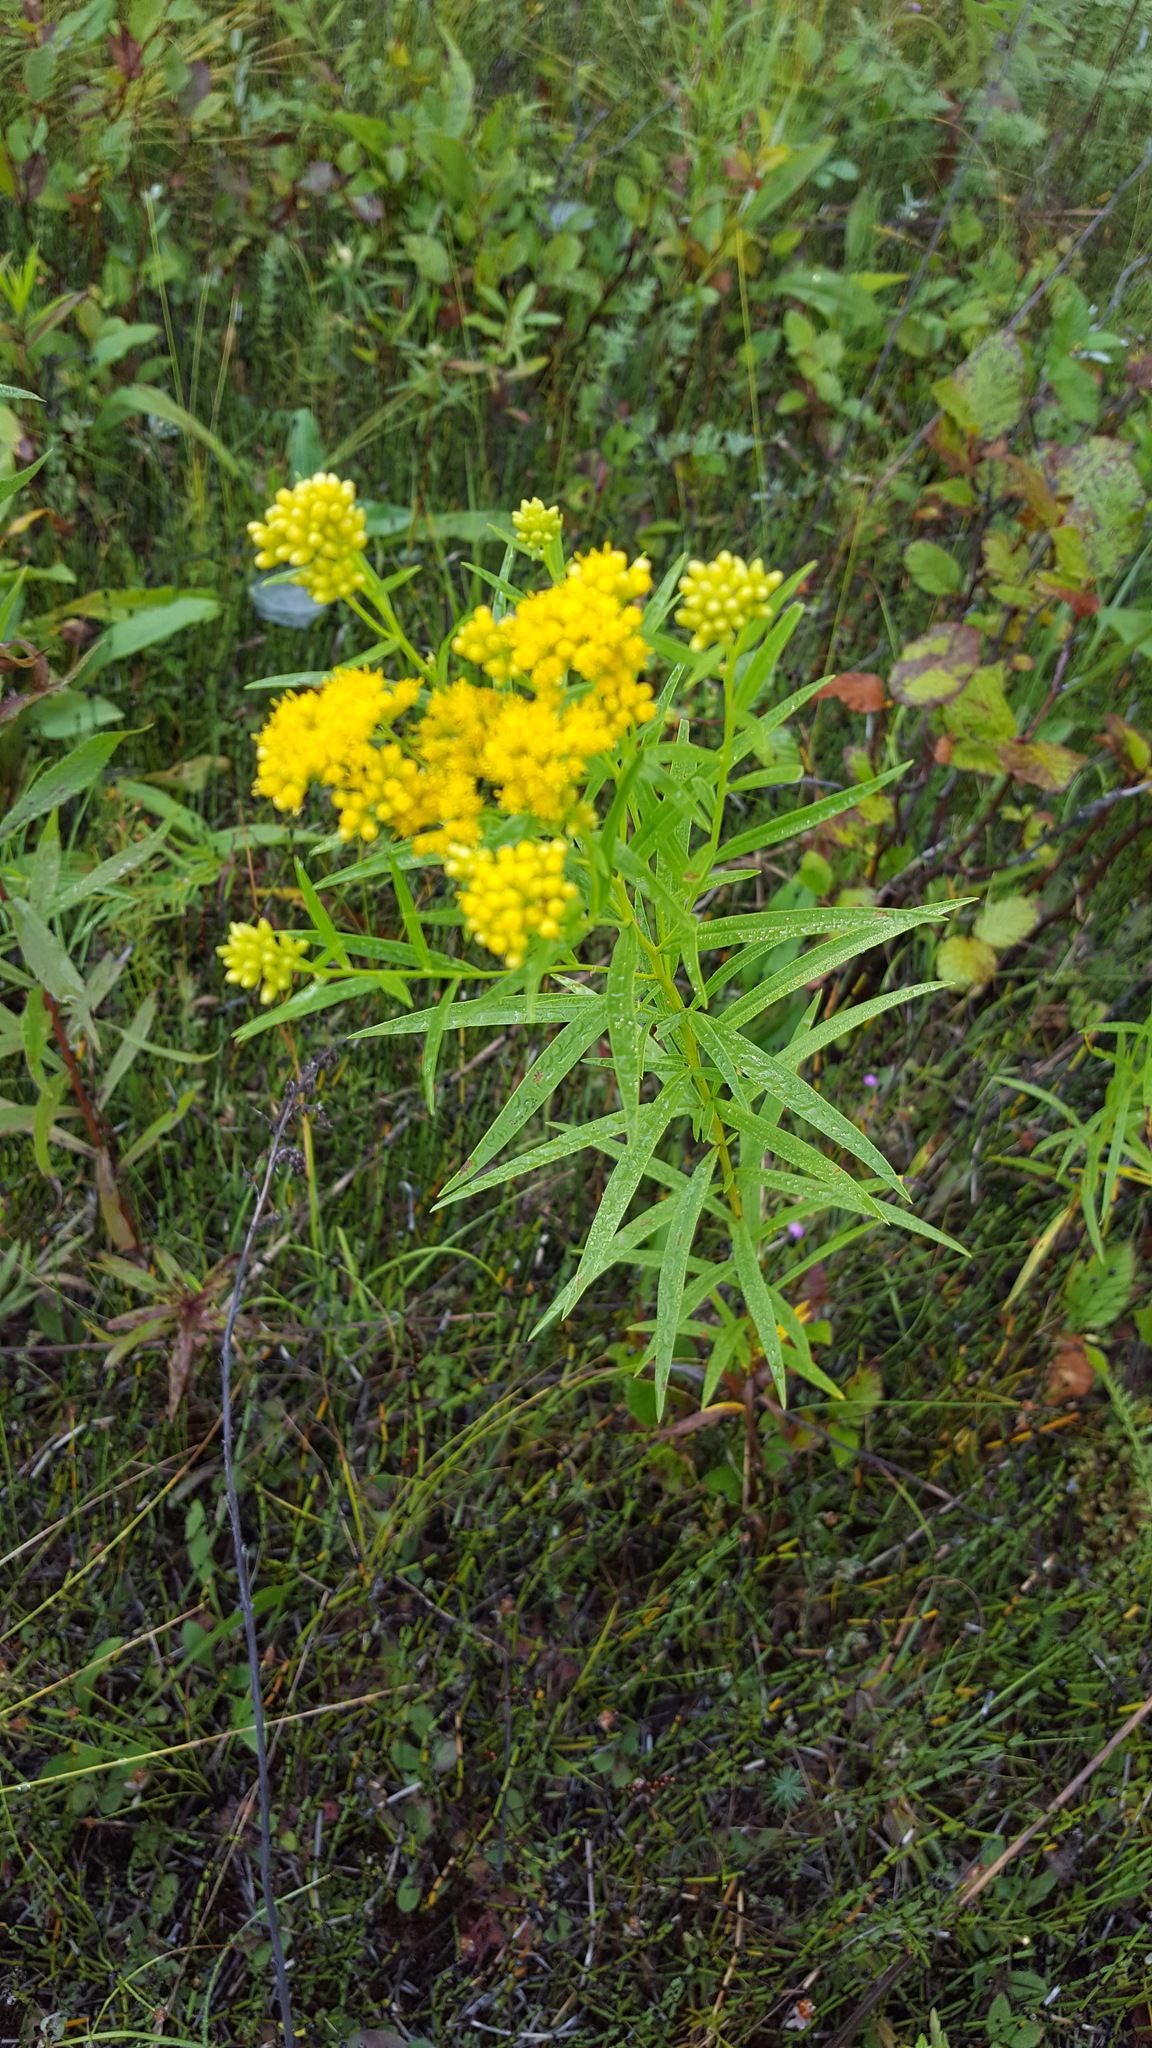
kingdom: Plantae
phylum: Tracheophyta
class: Magnoliopsida
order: Asterales
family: Asteraceae
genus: Euthamia
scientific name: Euthamia graminifolia
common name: Common goldentop
